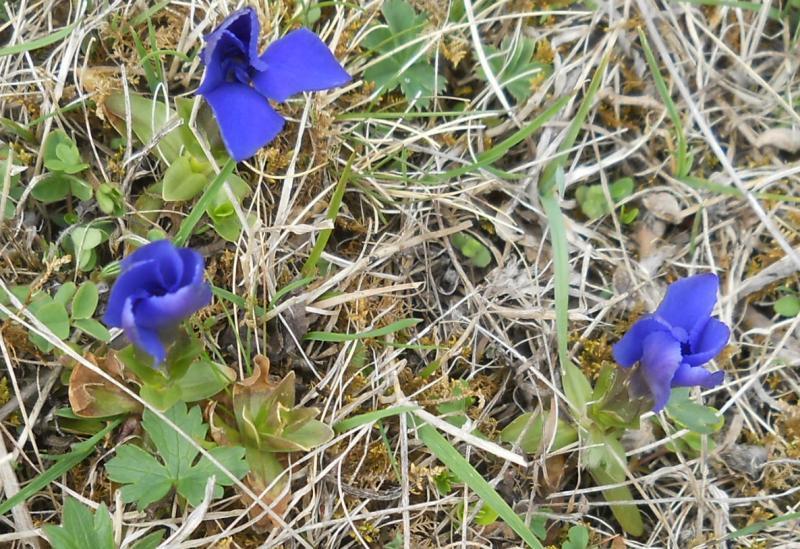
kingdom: Plantae
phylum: Tracheophyta
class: Magnoliopsida
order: Gentianales
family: Gentianaceae
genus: Gentiana
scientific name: Gentiana verna
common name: Spring gentian
